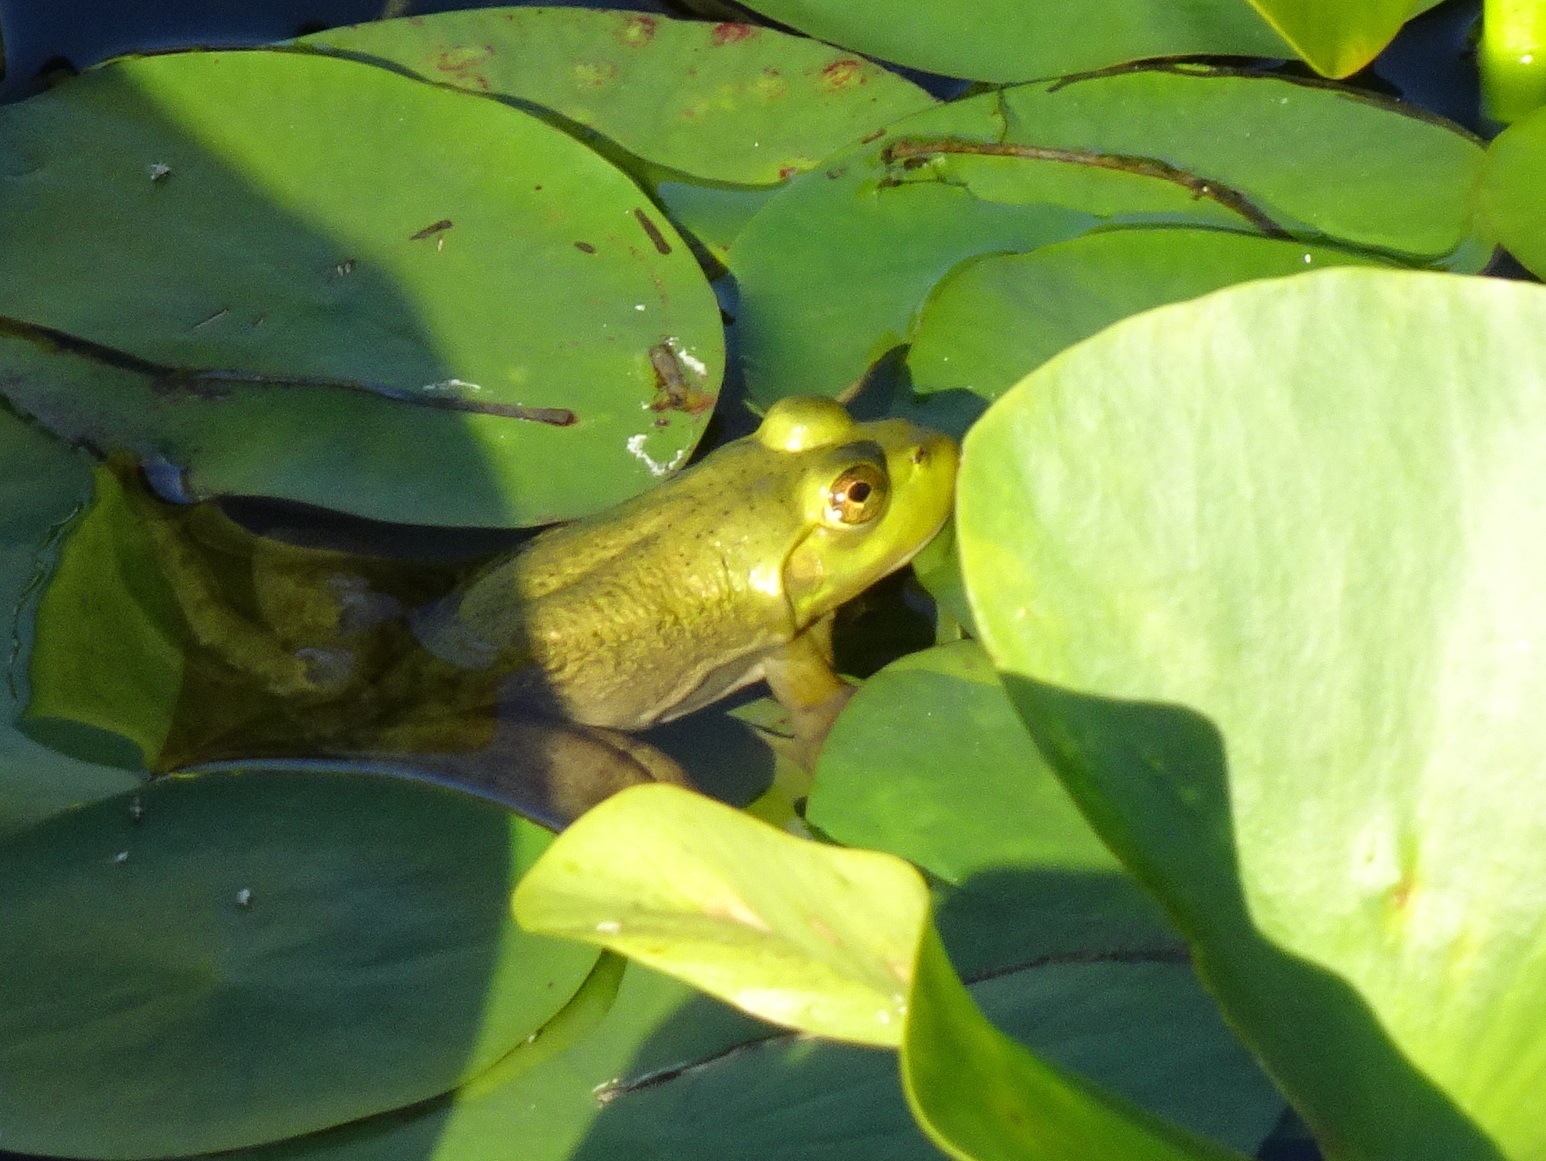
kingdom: Animalia
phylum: Chordata
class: Amphibia
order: Anura
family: Ranidae
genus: Lithobates
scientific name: Lithobates catesbeianus
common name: American bullfrog
